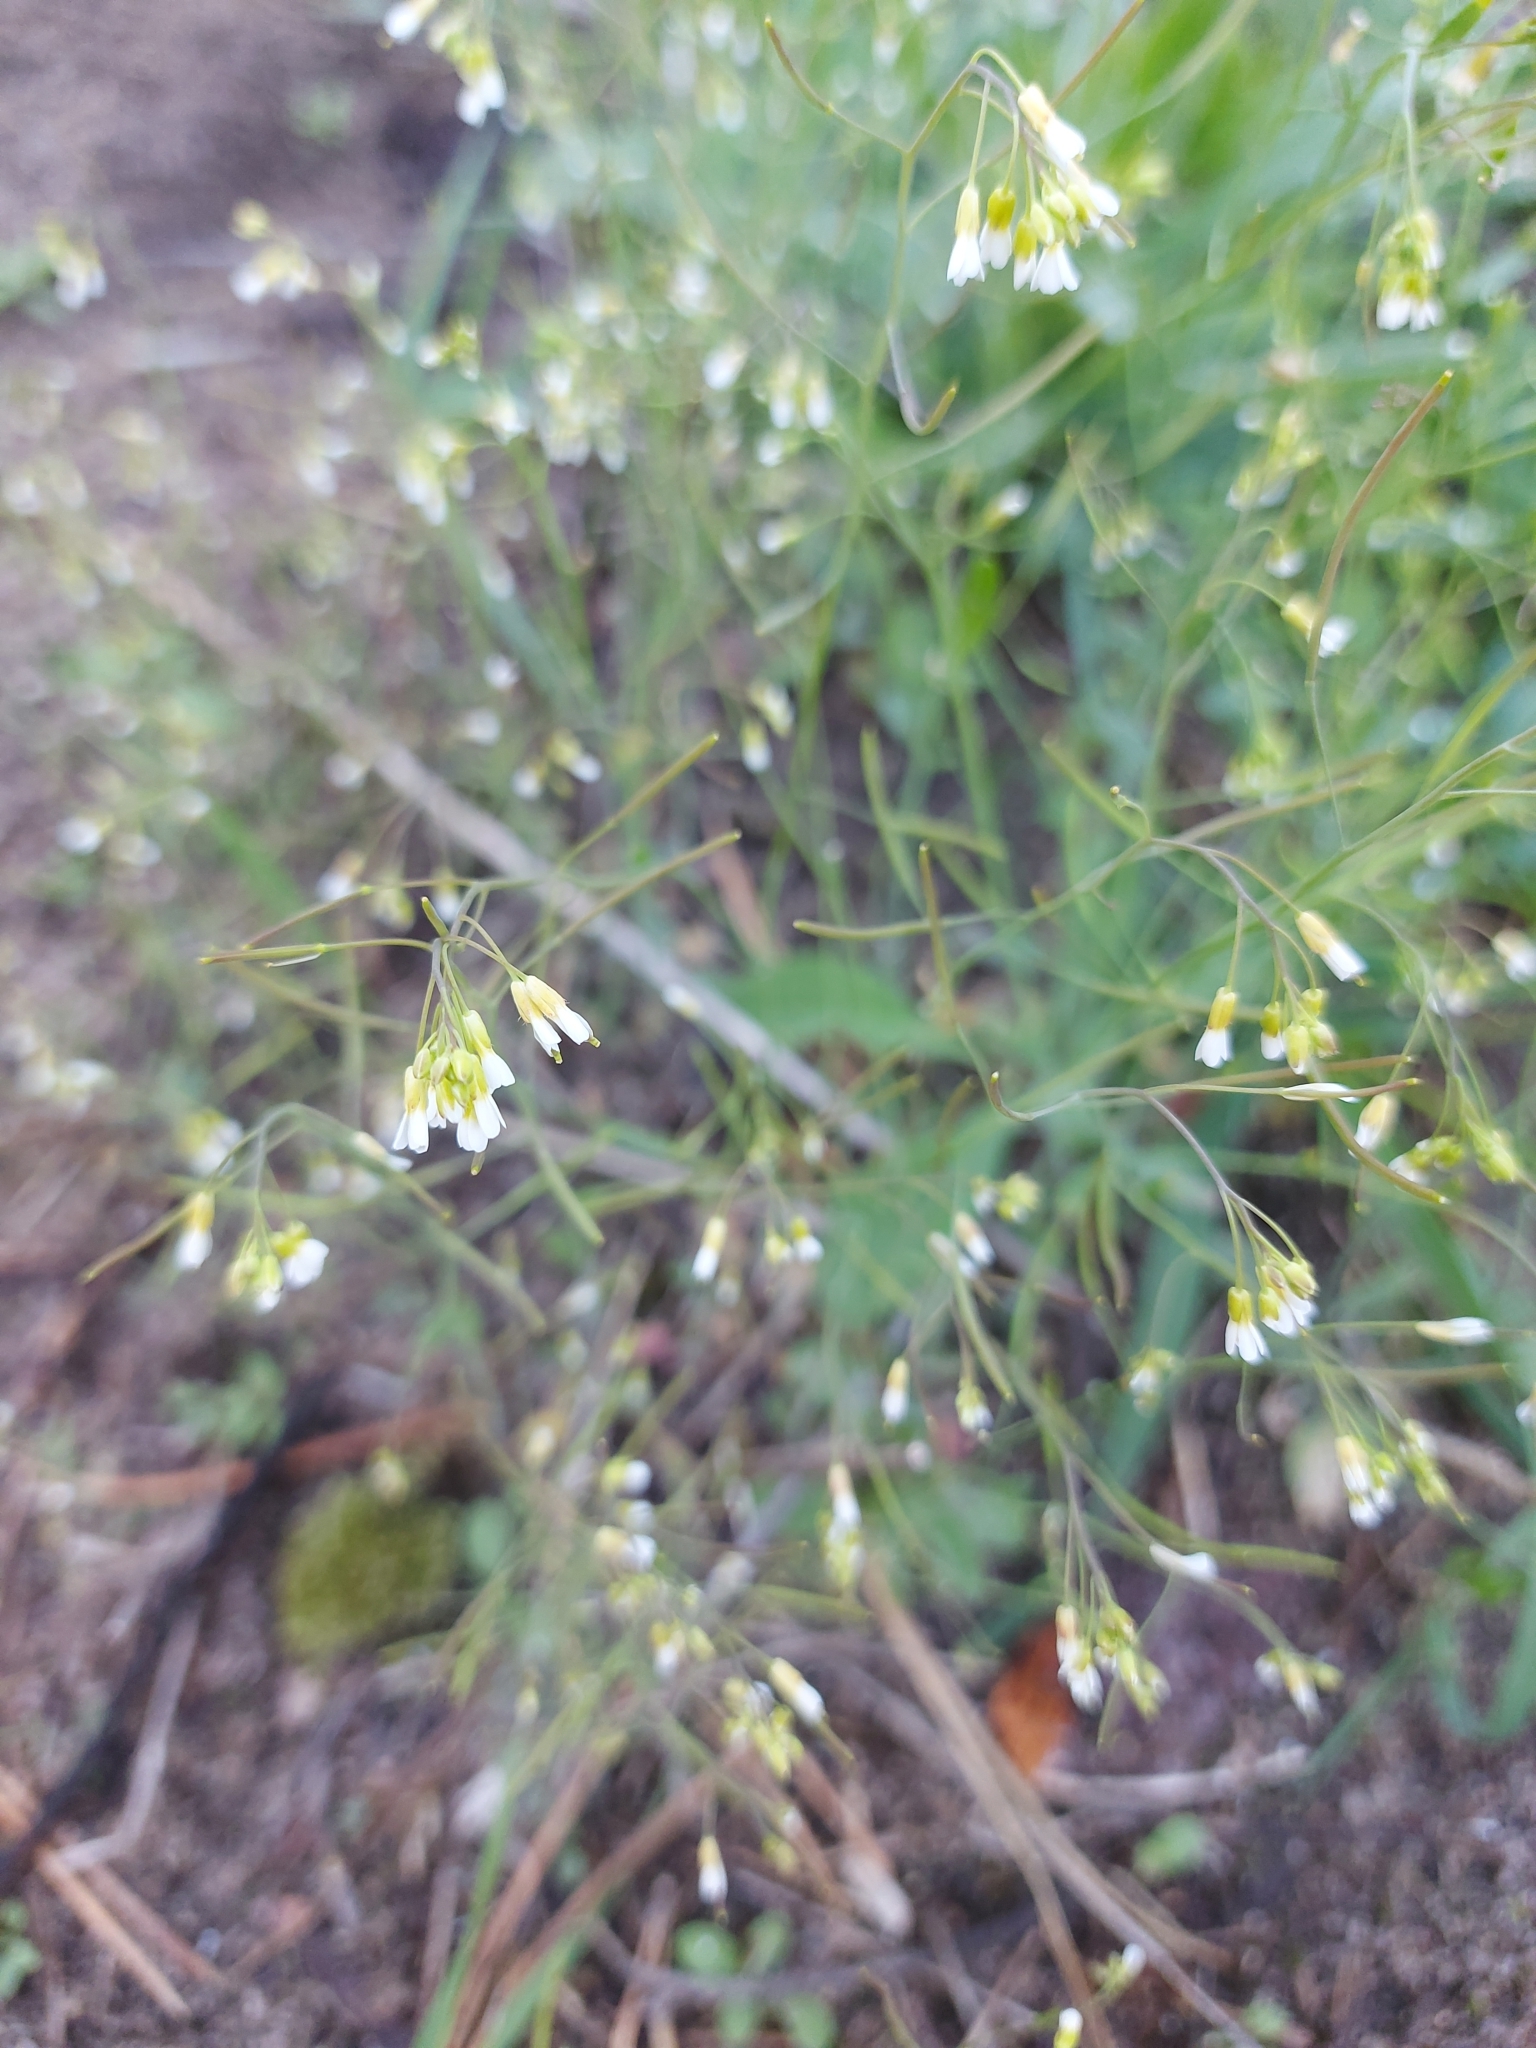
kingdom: Plantae
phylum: Tracheophyta
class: Magnoliopsida
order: Brassicales
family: Brassicaceae
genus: Arabidopsis
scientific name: Arabidopsis thaliana
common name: Thale cress
